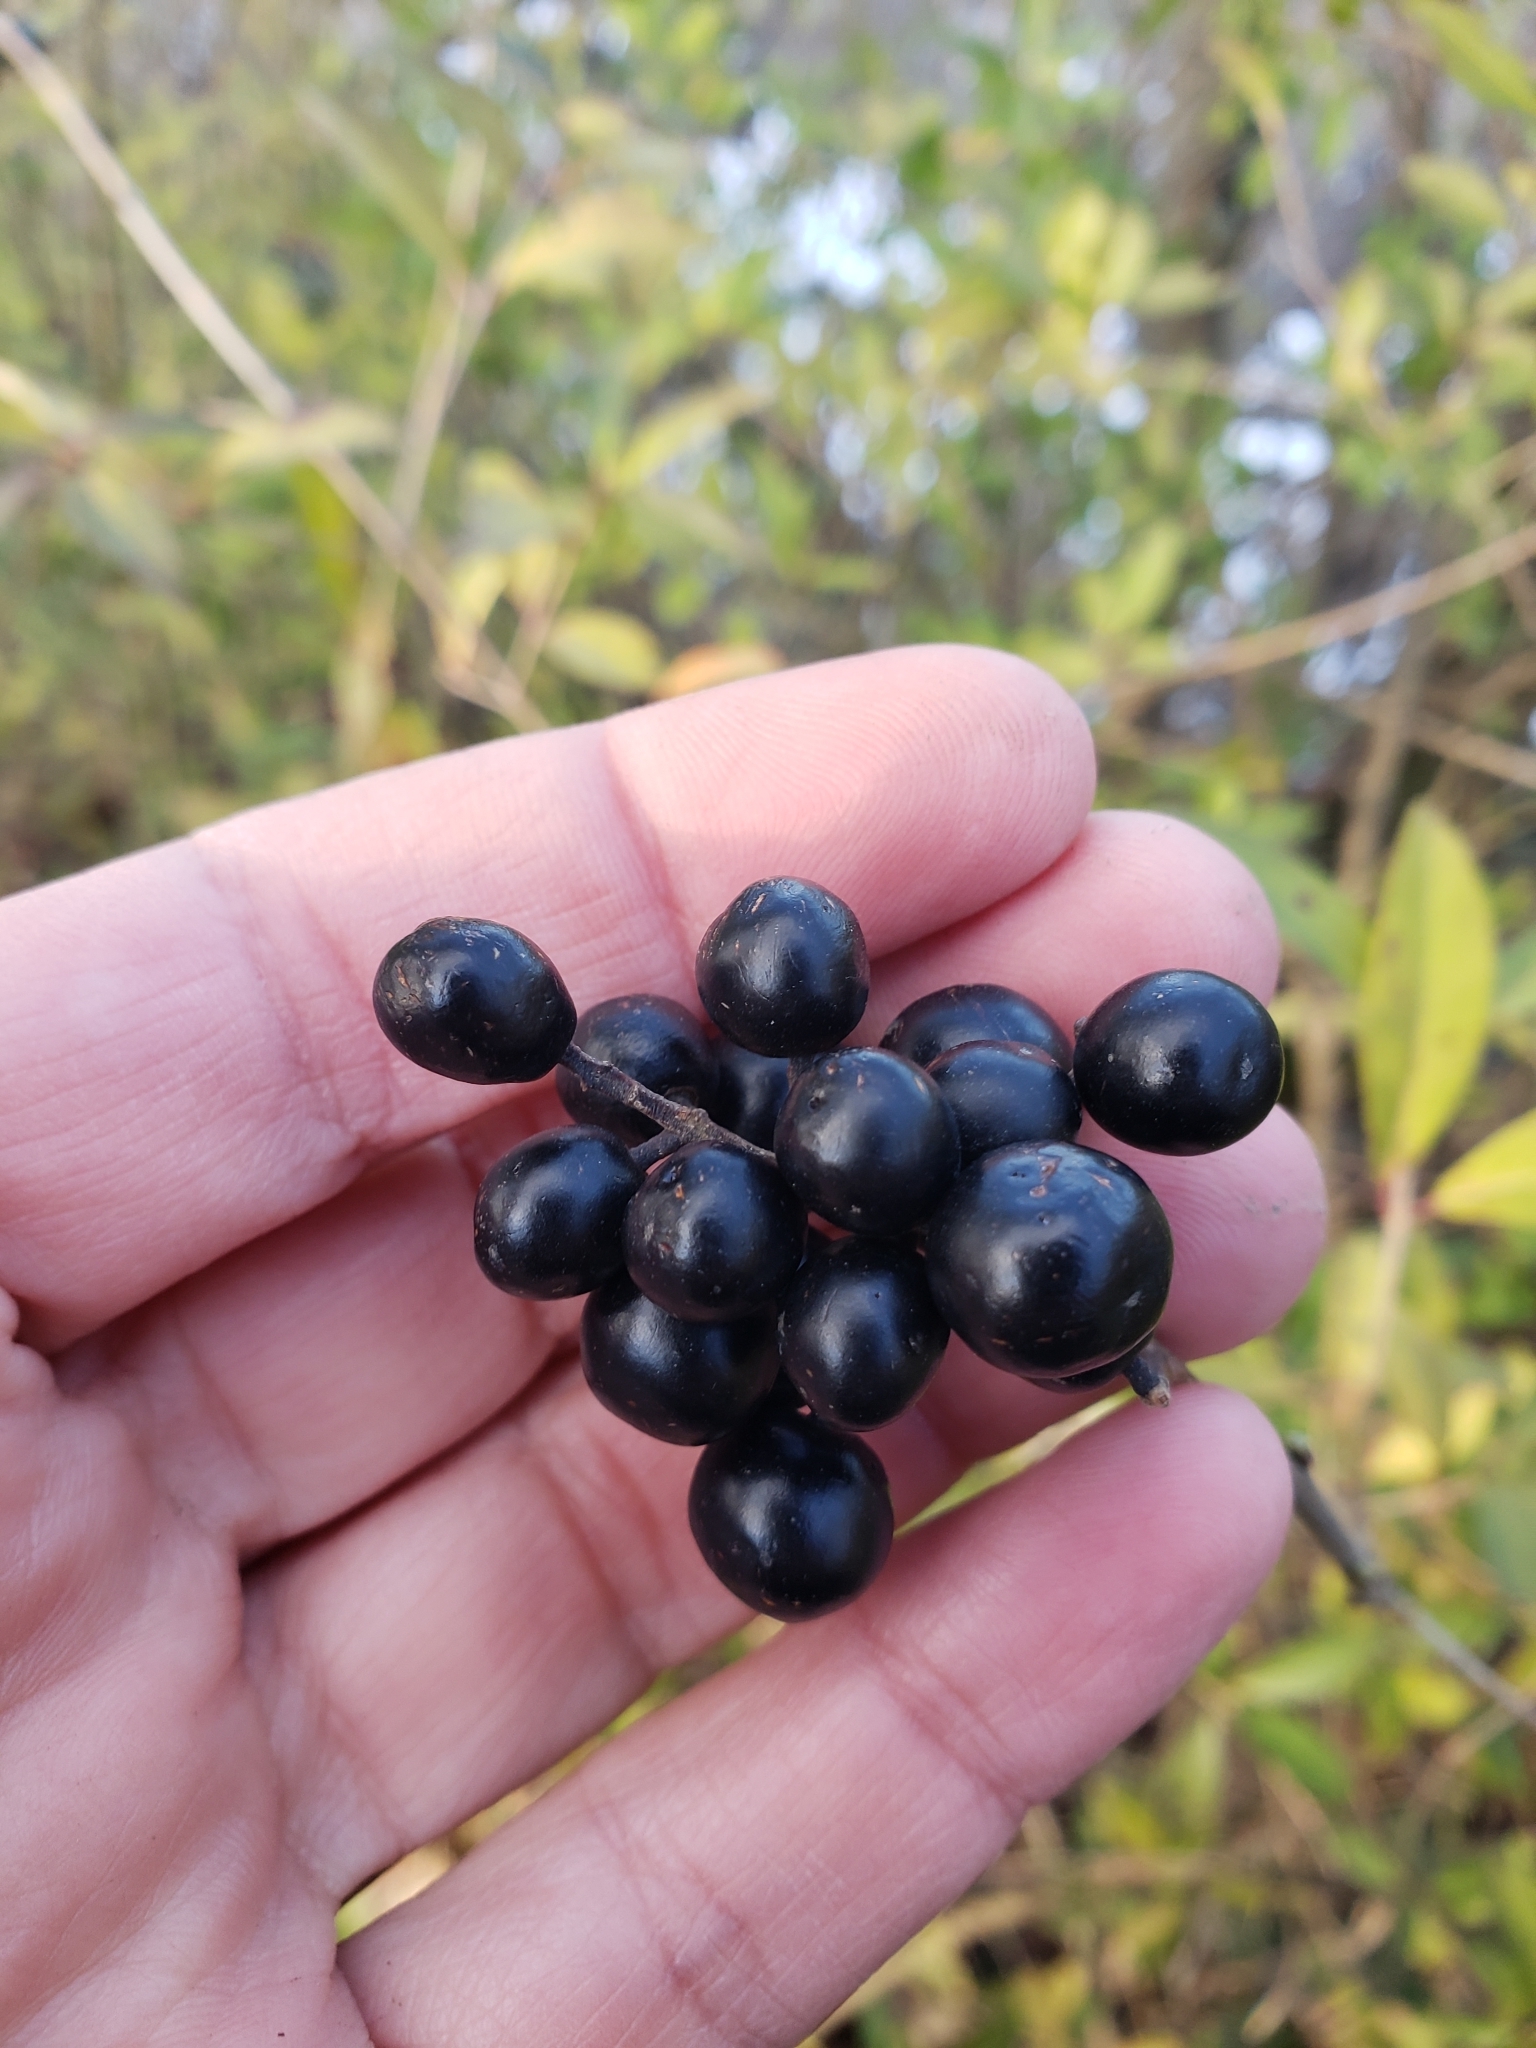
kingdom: Plantae
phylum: Tracheophyta
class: Magnoliopsida
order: Lamiales
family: Oleaceae
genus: Ligustrum
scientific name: Ligustrum vulgare
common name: Wild privet
